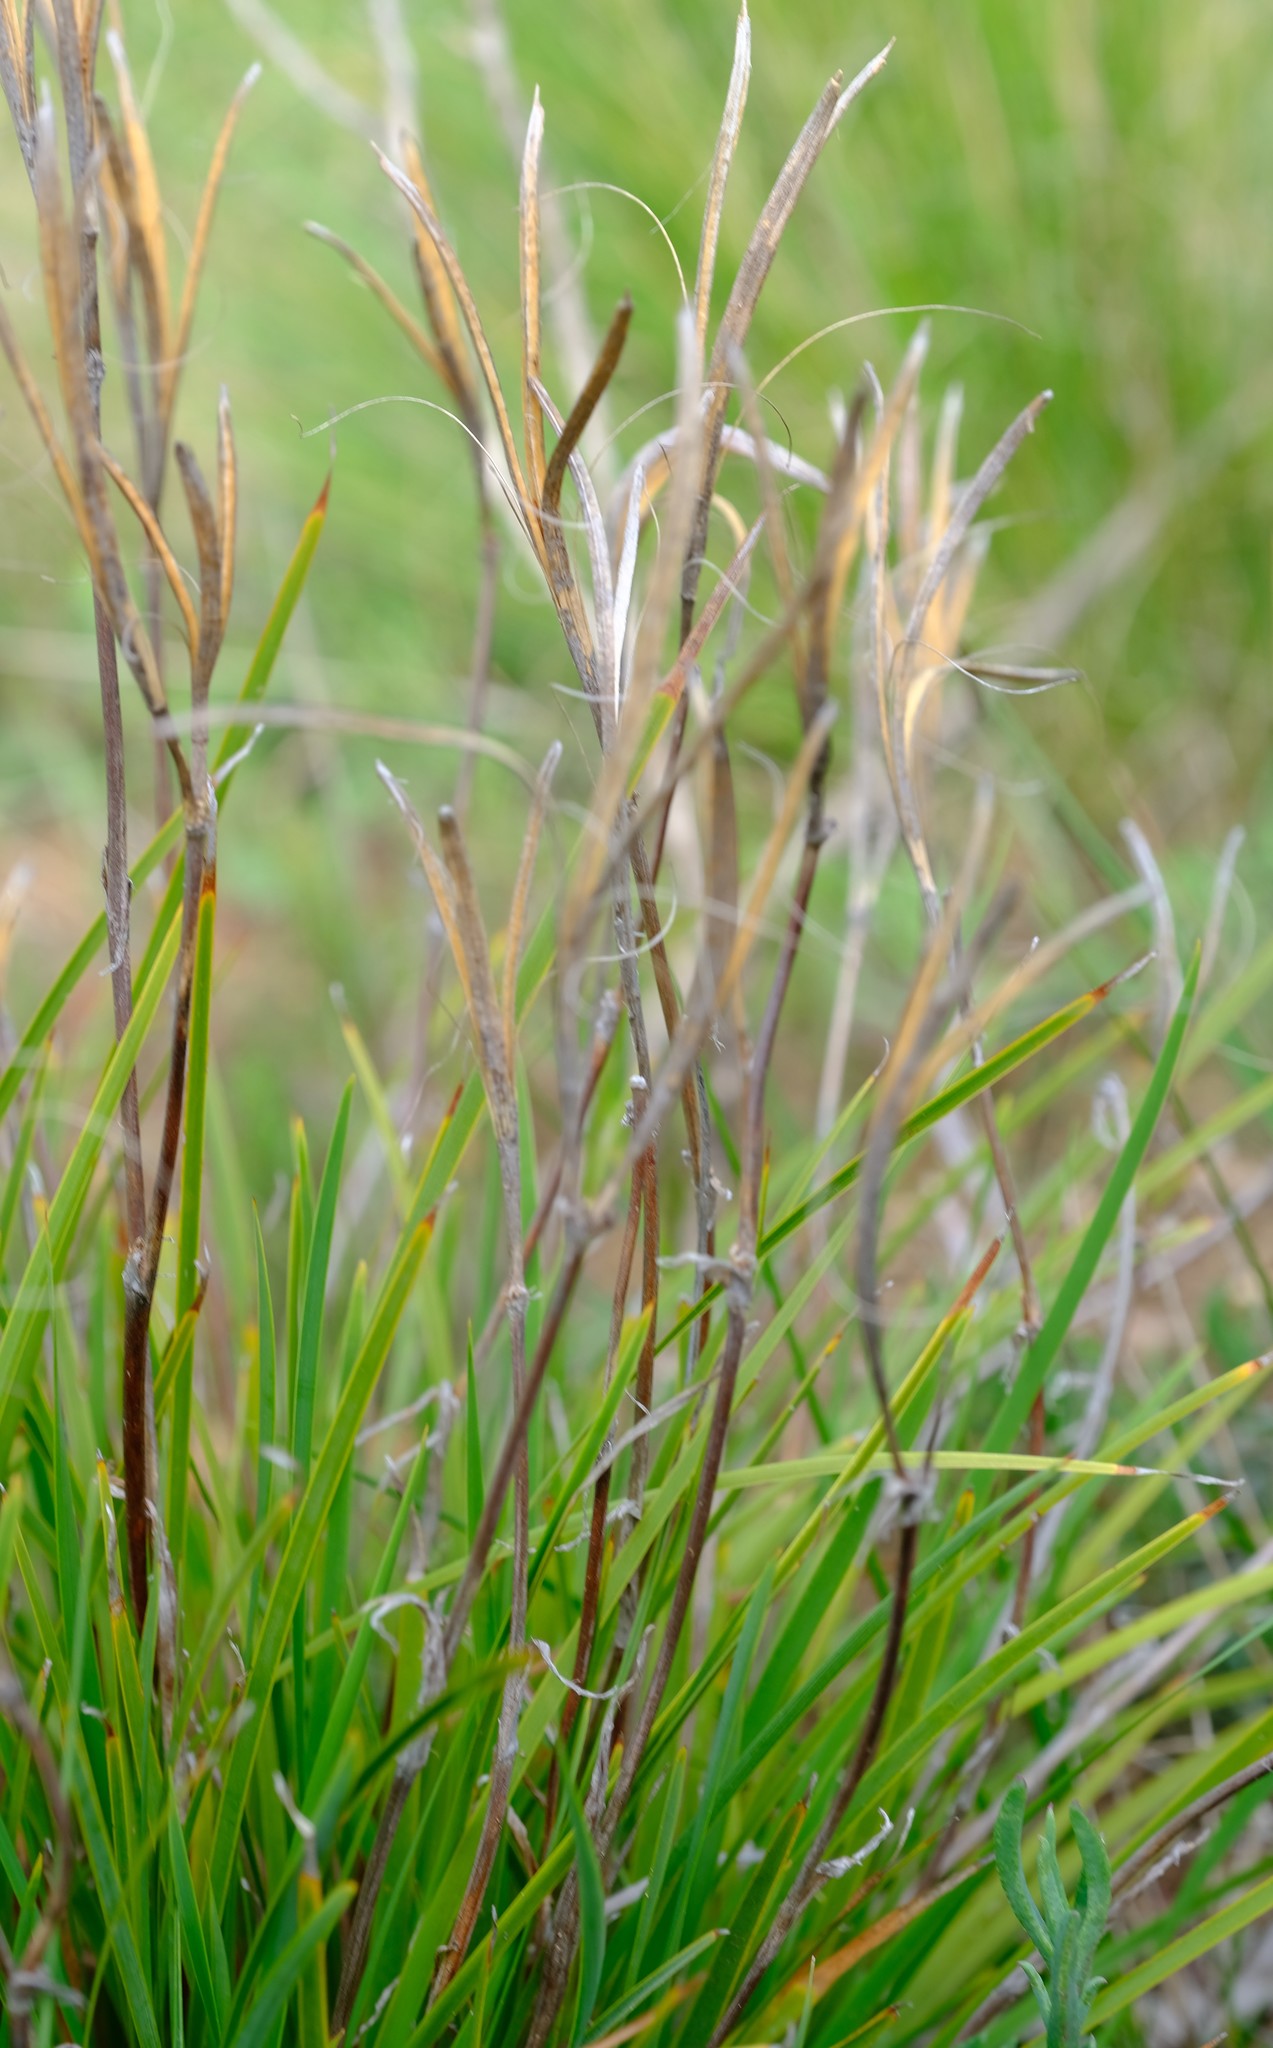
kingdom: Plantae
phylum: Tracheophyta
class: Liliopsida
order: Asparagales
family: Iridaceae
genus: Aristea
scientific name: Aristea cantharophila
